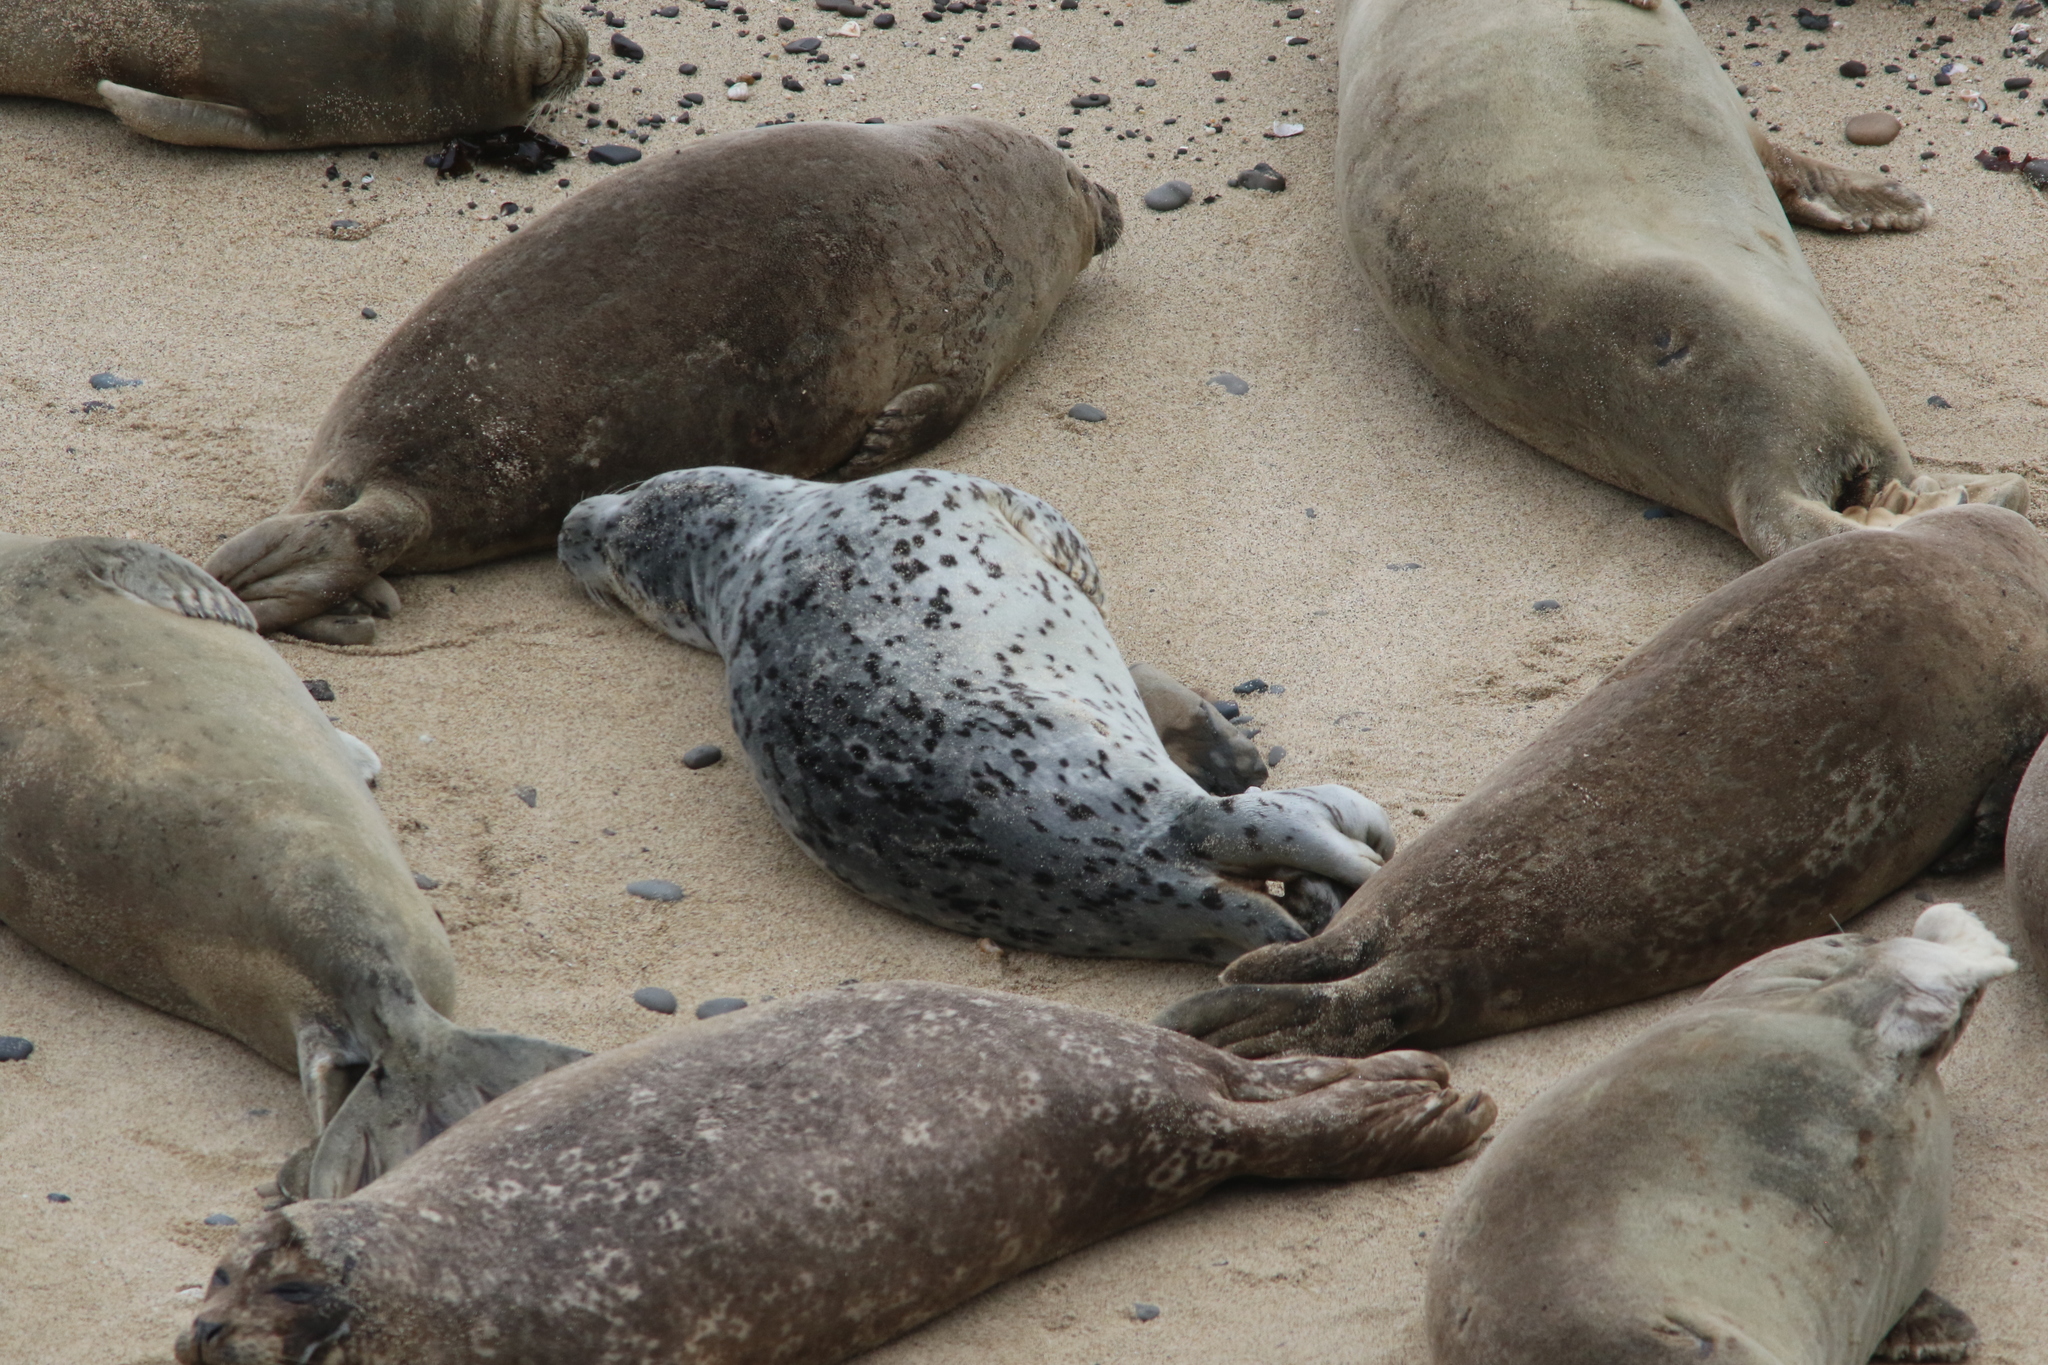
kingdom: Animalia
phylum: Chordata
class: Mammalia
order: Carnivora
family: Phocidae
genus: Phoca
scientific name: Phoca vitulina
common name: Harbor seal
